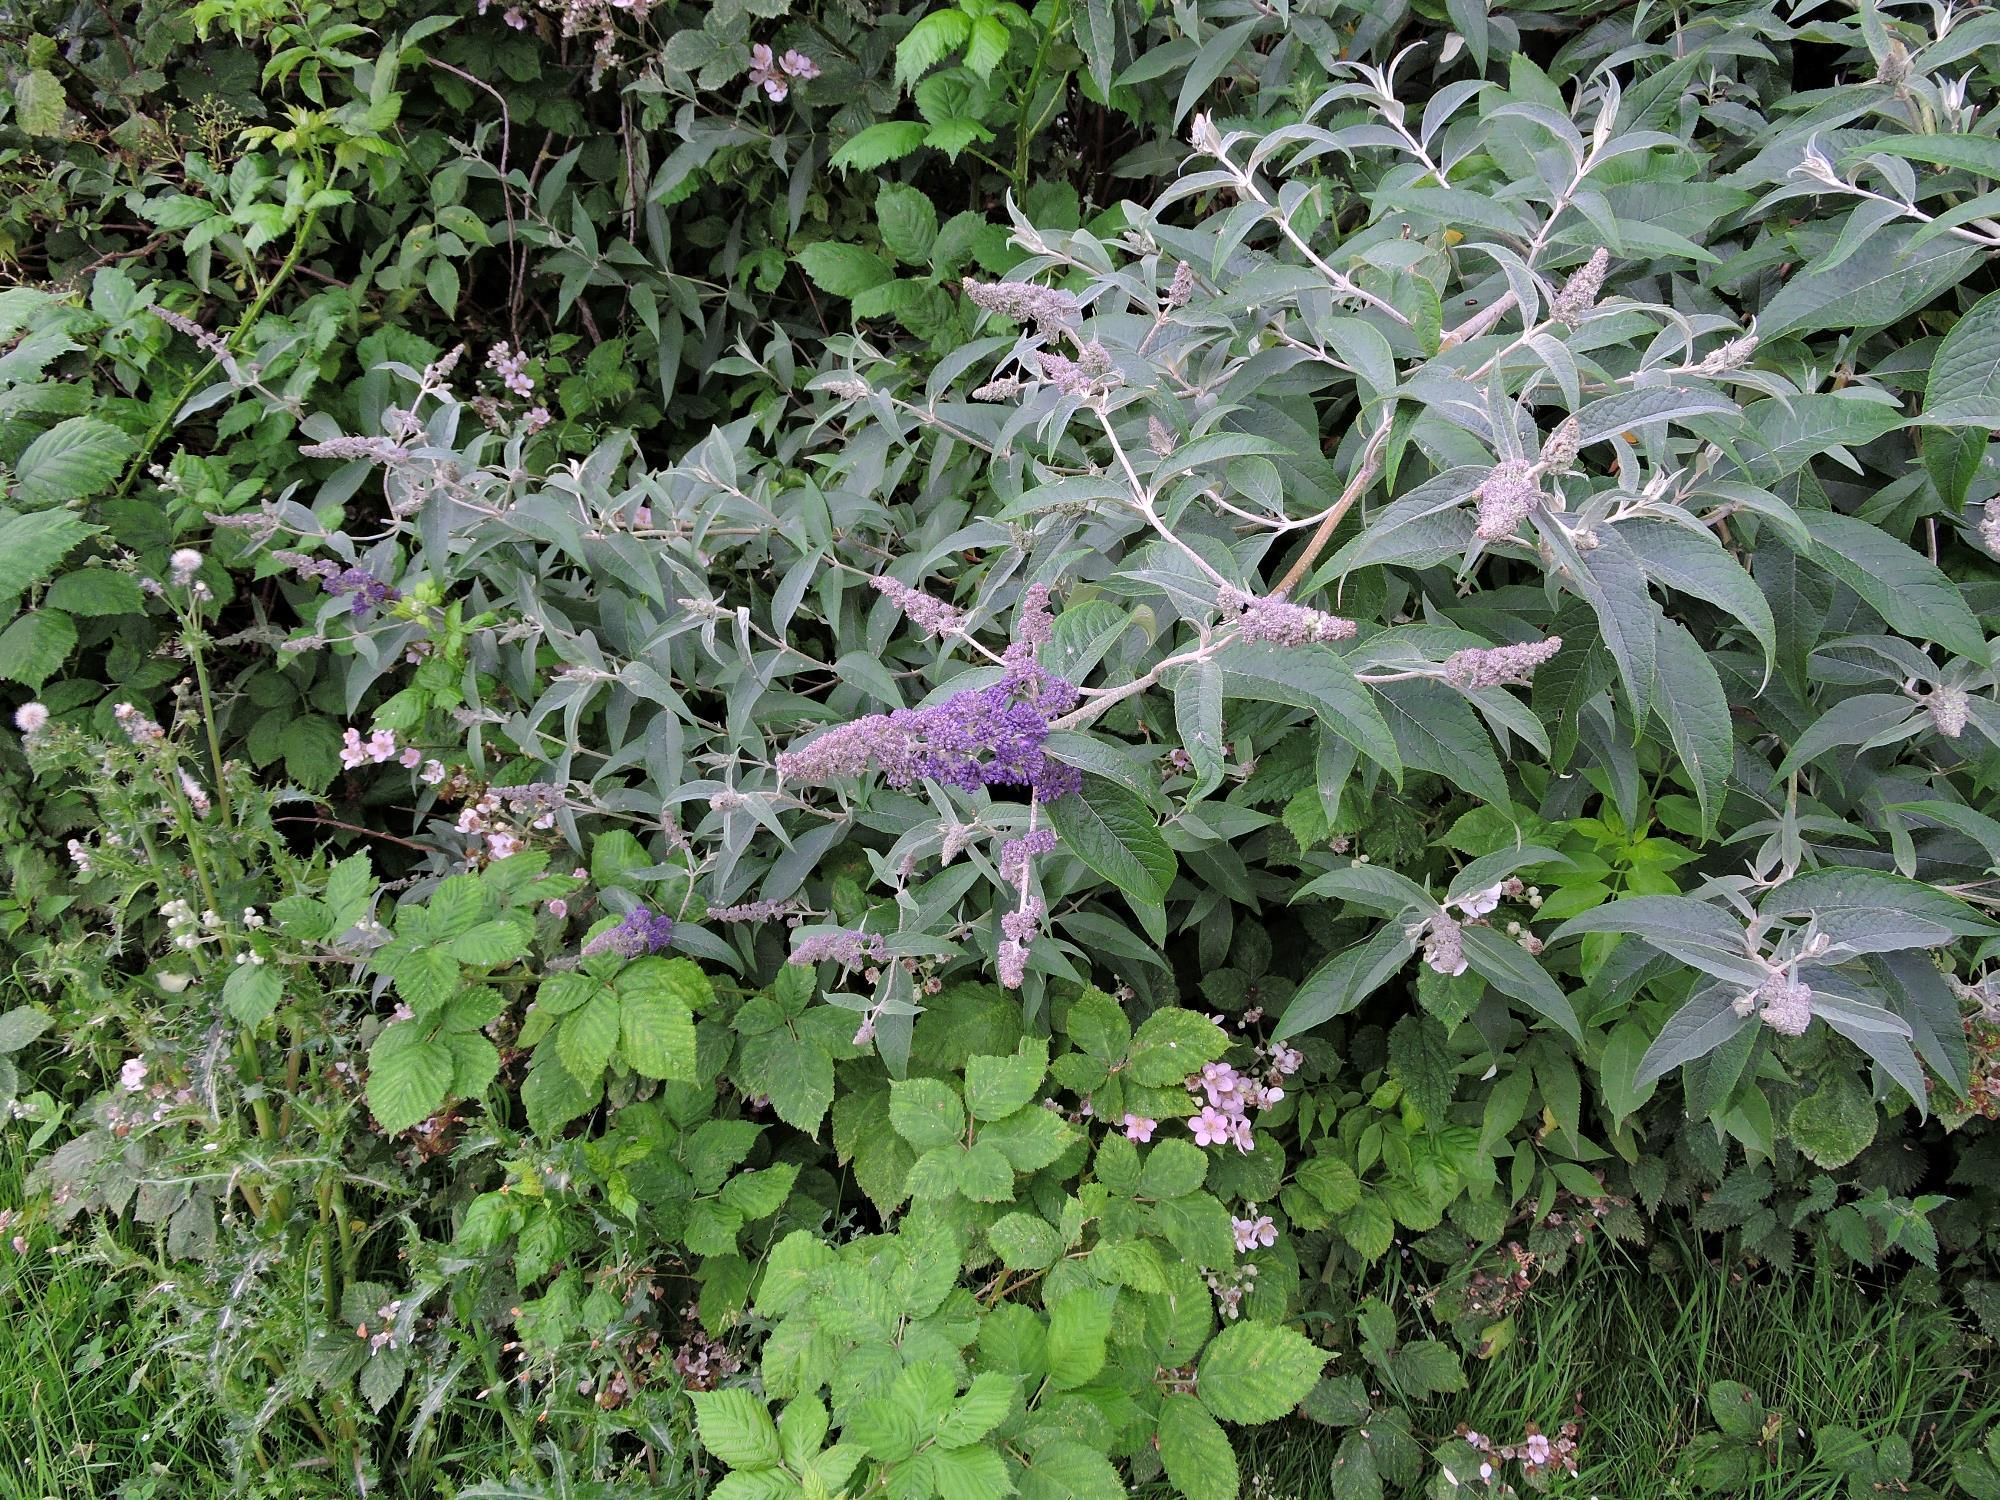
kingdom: Plantae
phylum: Tracheophyta
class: Magnoliopsida
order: Lamiales
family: Scrophulariaceae
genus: Buddleja
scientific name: Buddleja davidii
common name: Butterfly-bush
